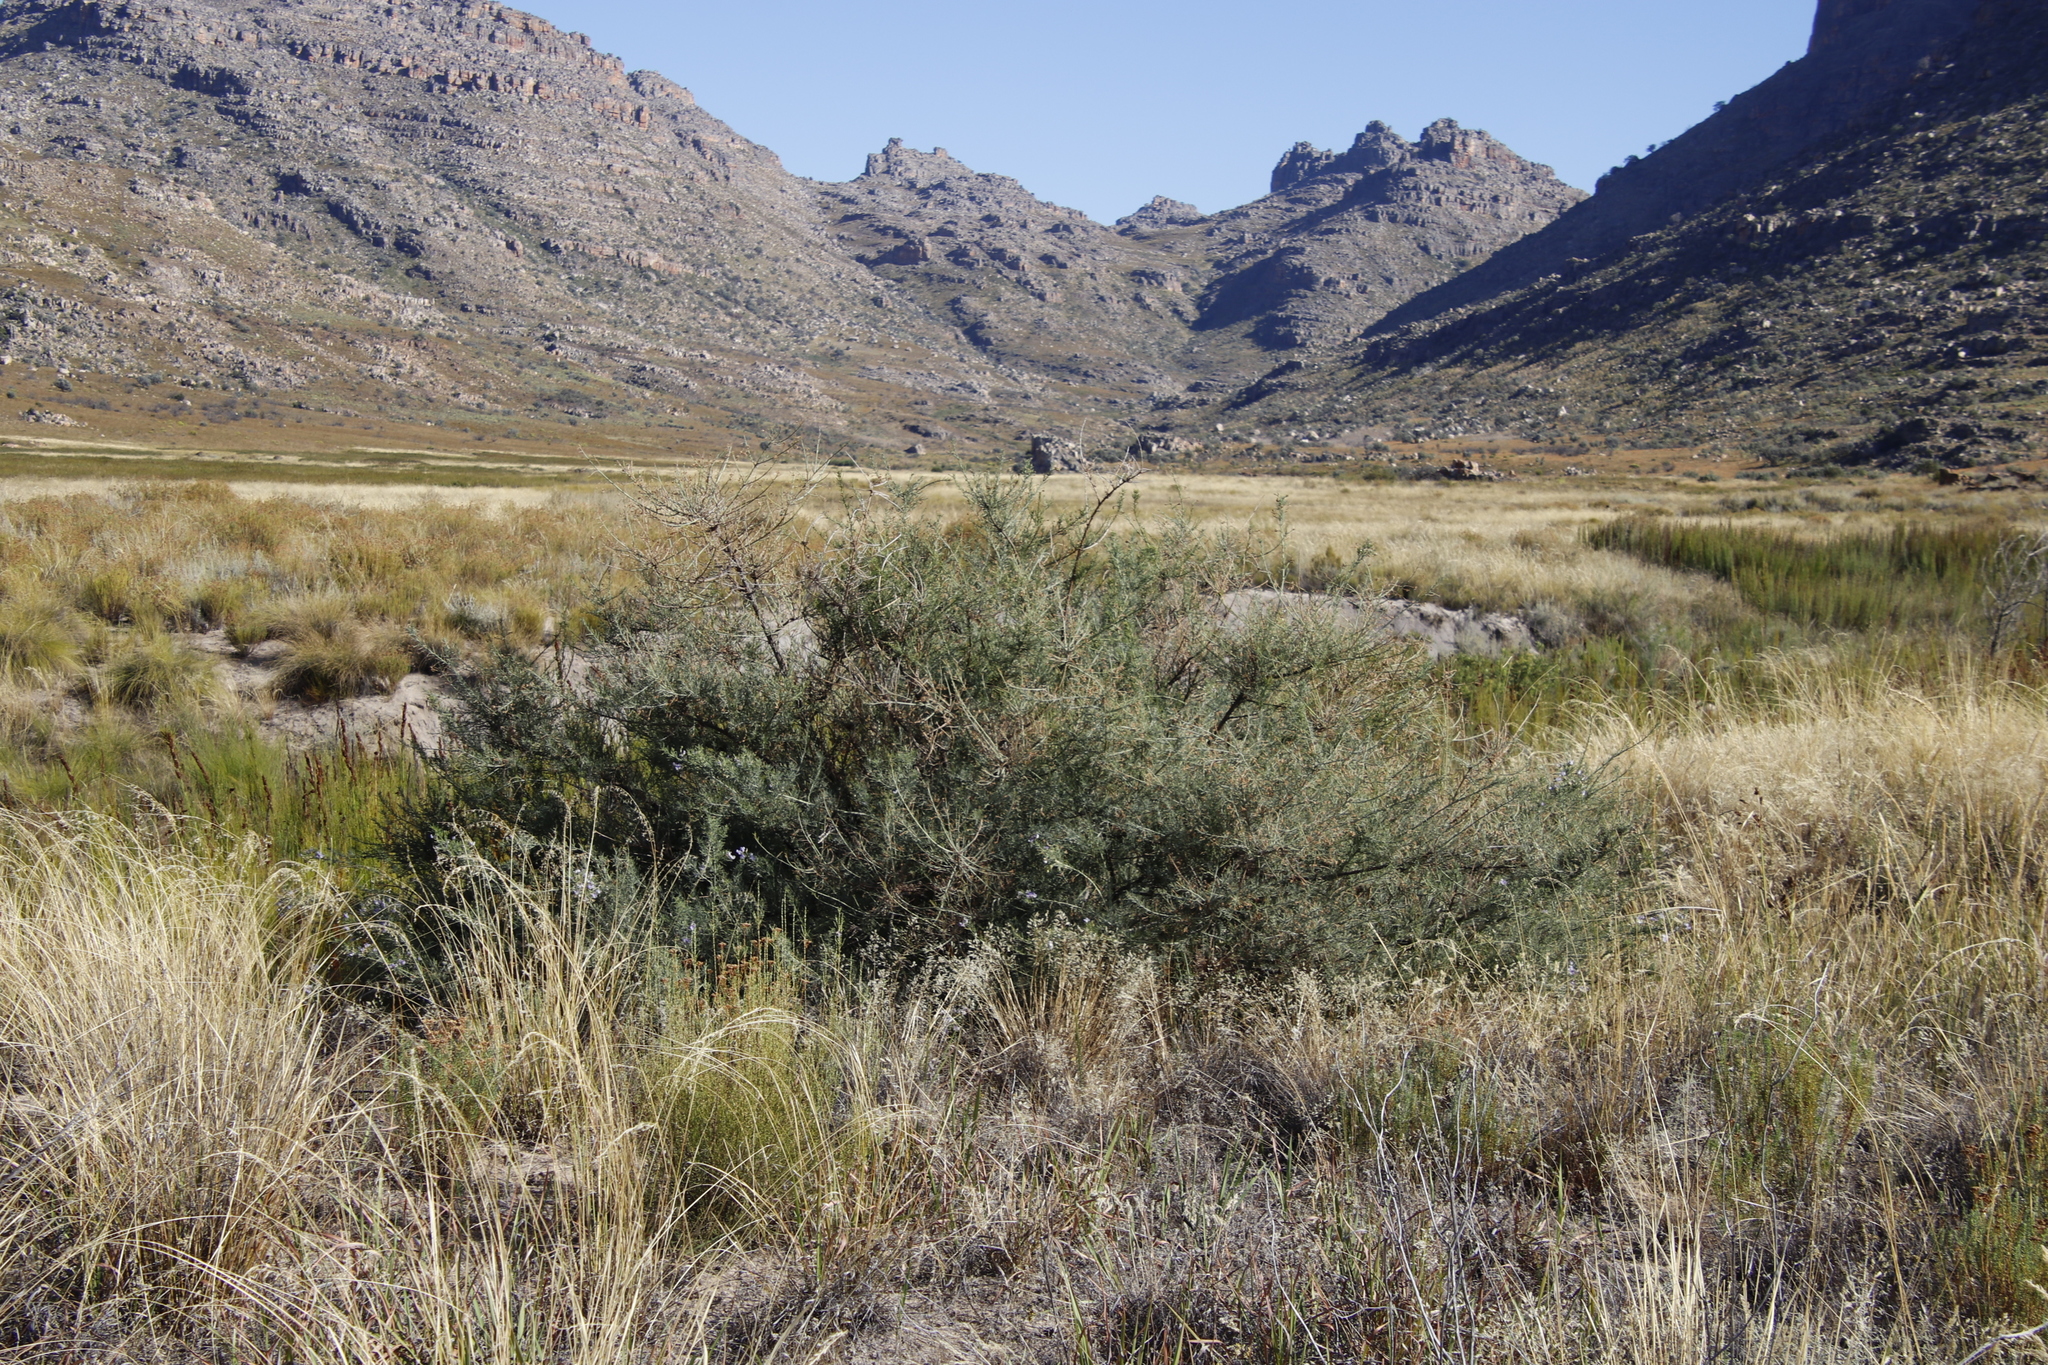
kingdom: Plantae
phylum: Tracheophyta
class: Magnoliopsida
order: Fabales
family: Fabaceae
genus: Psoralea
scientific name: Psoralea verrucosa
